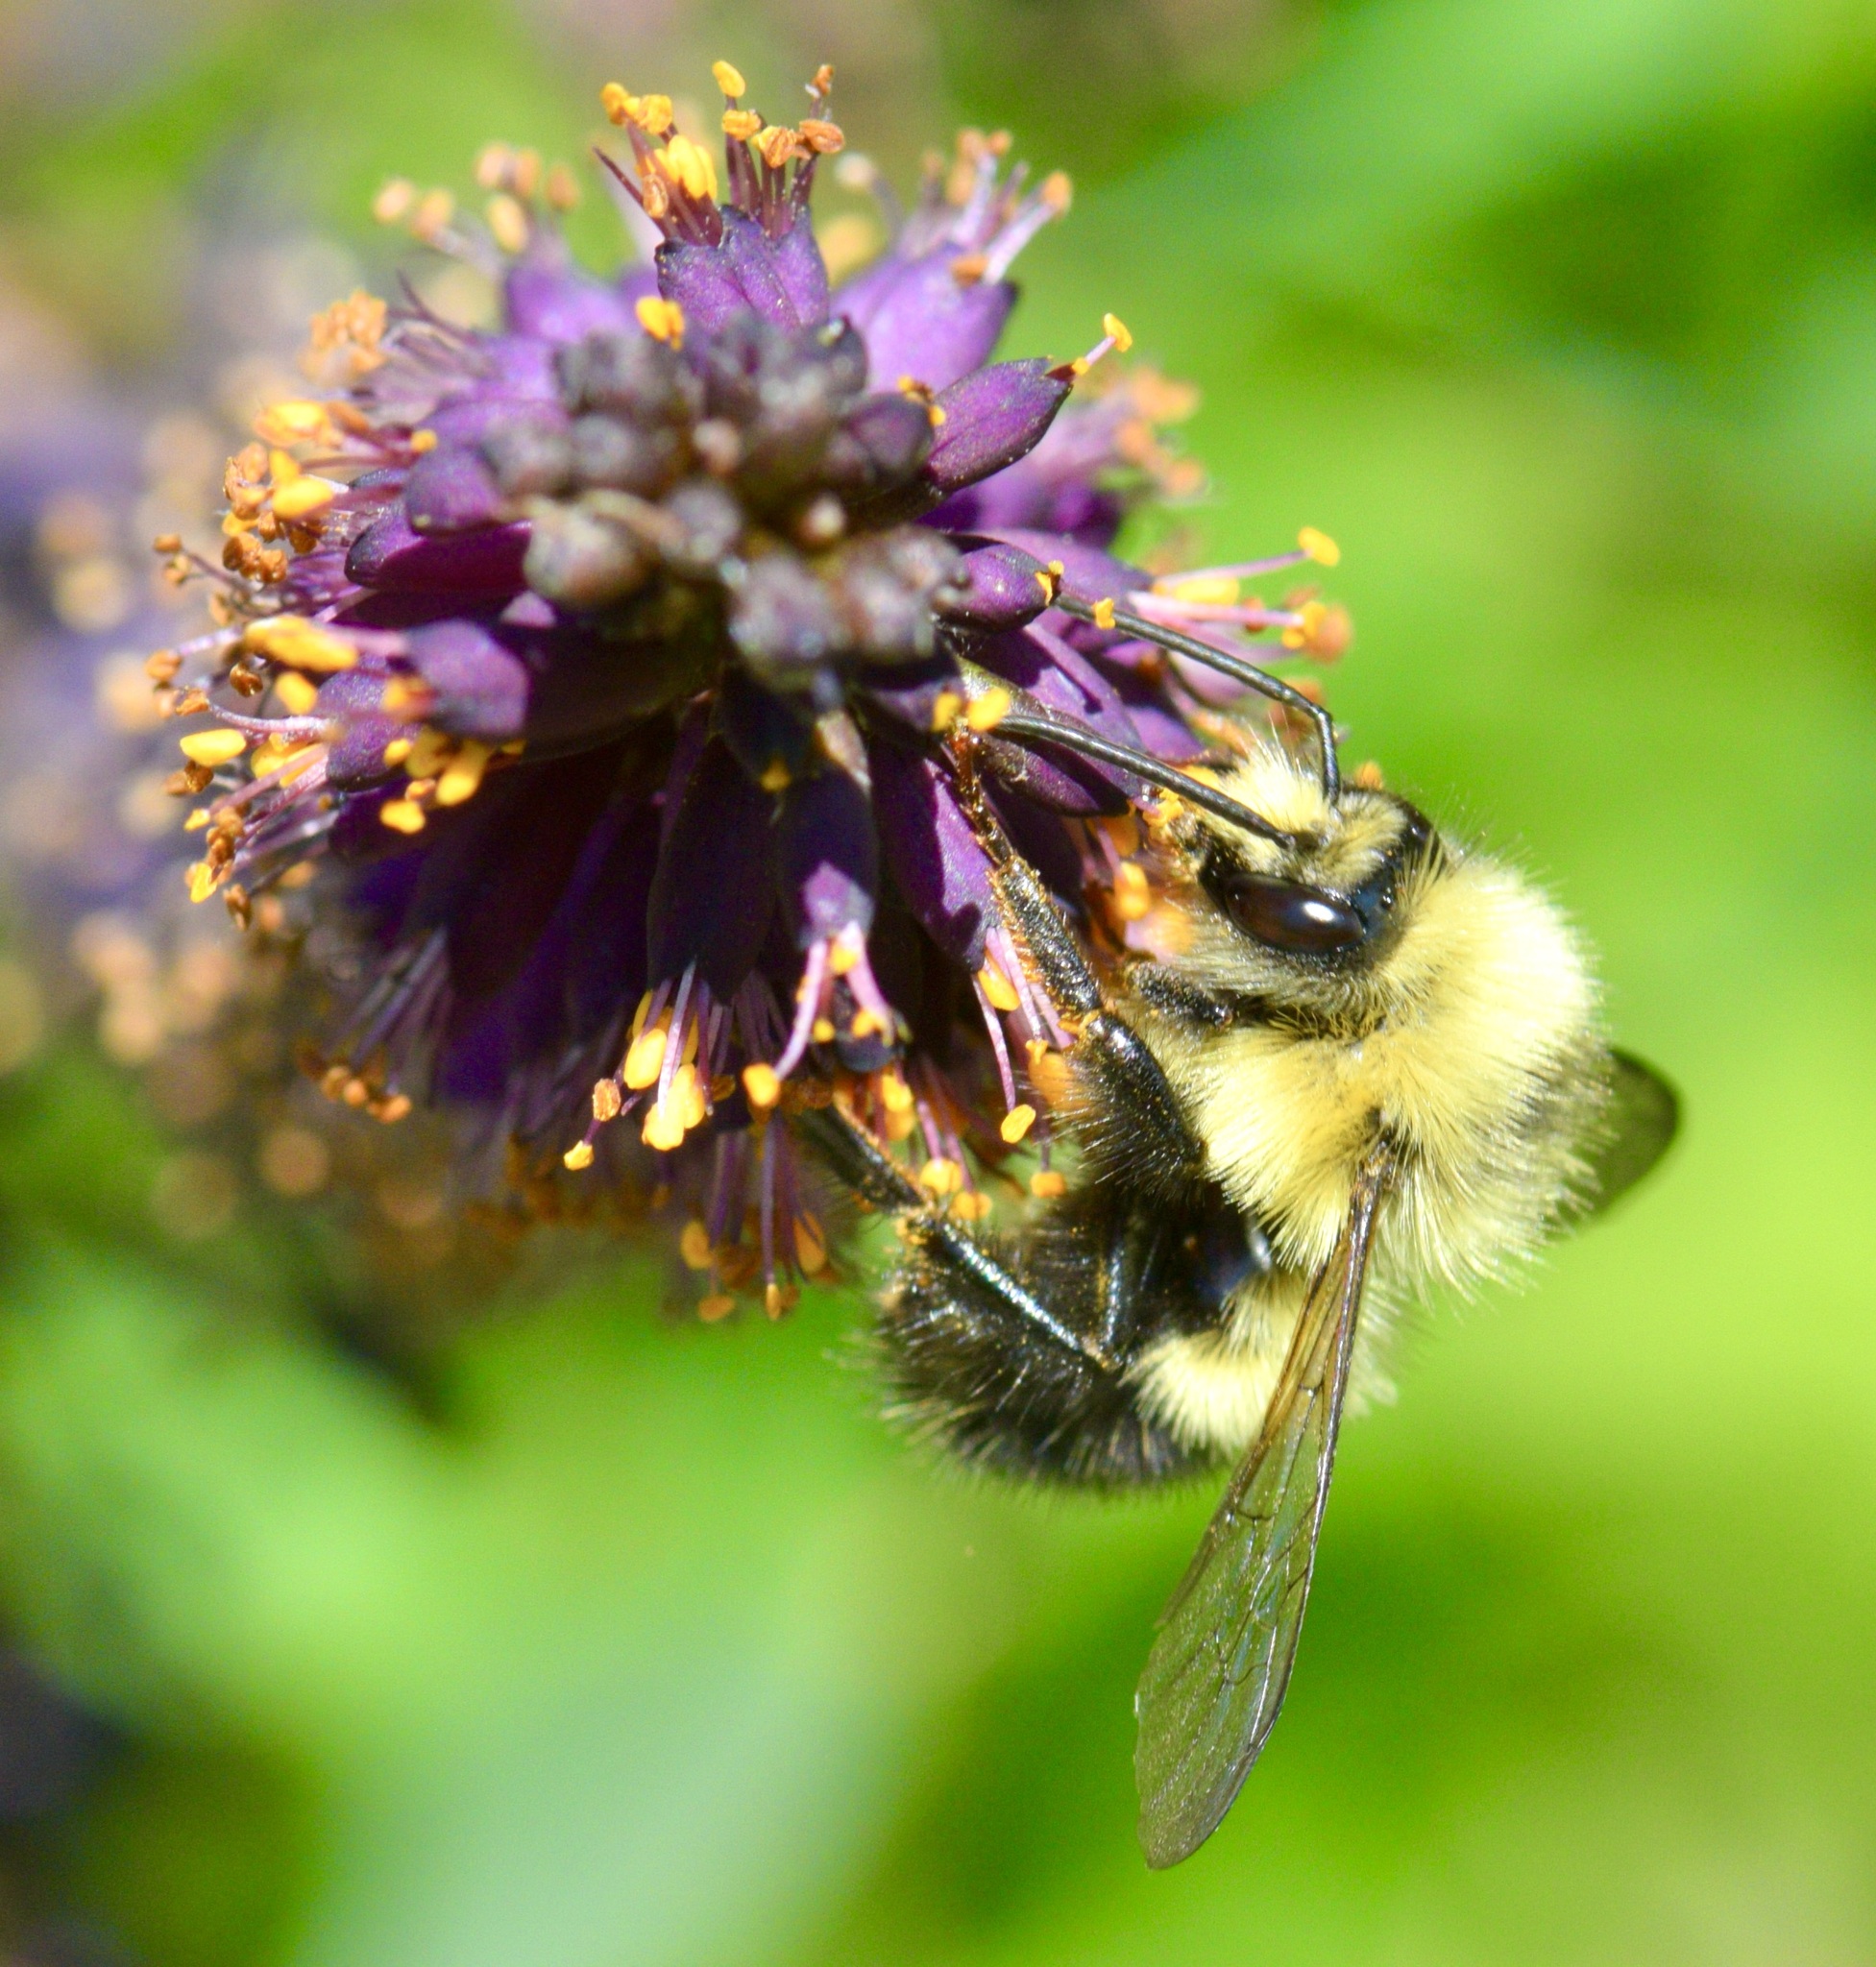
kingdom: Animalia
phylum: Arthropoda
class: Insecta
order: Hymenoptera
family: Apidae
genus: Bombus
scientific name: Bombus vagans
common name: Half-black bumble bee
